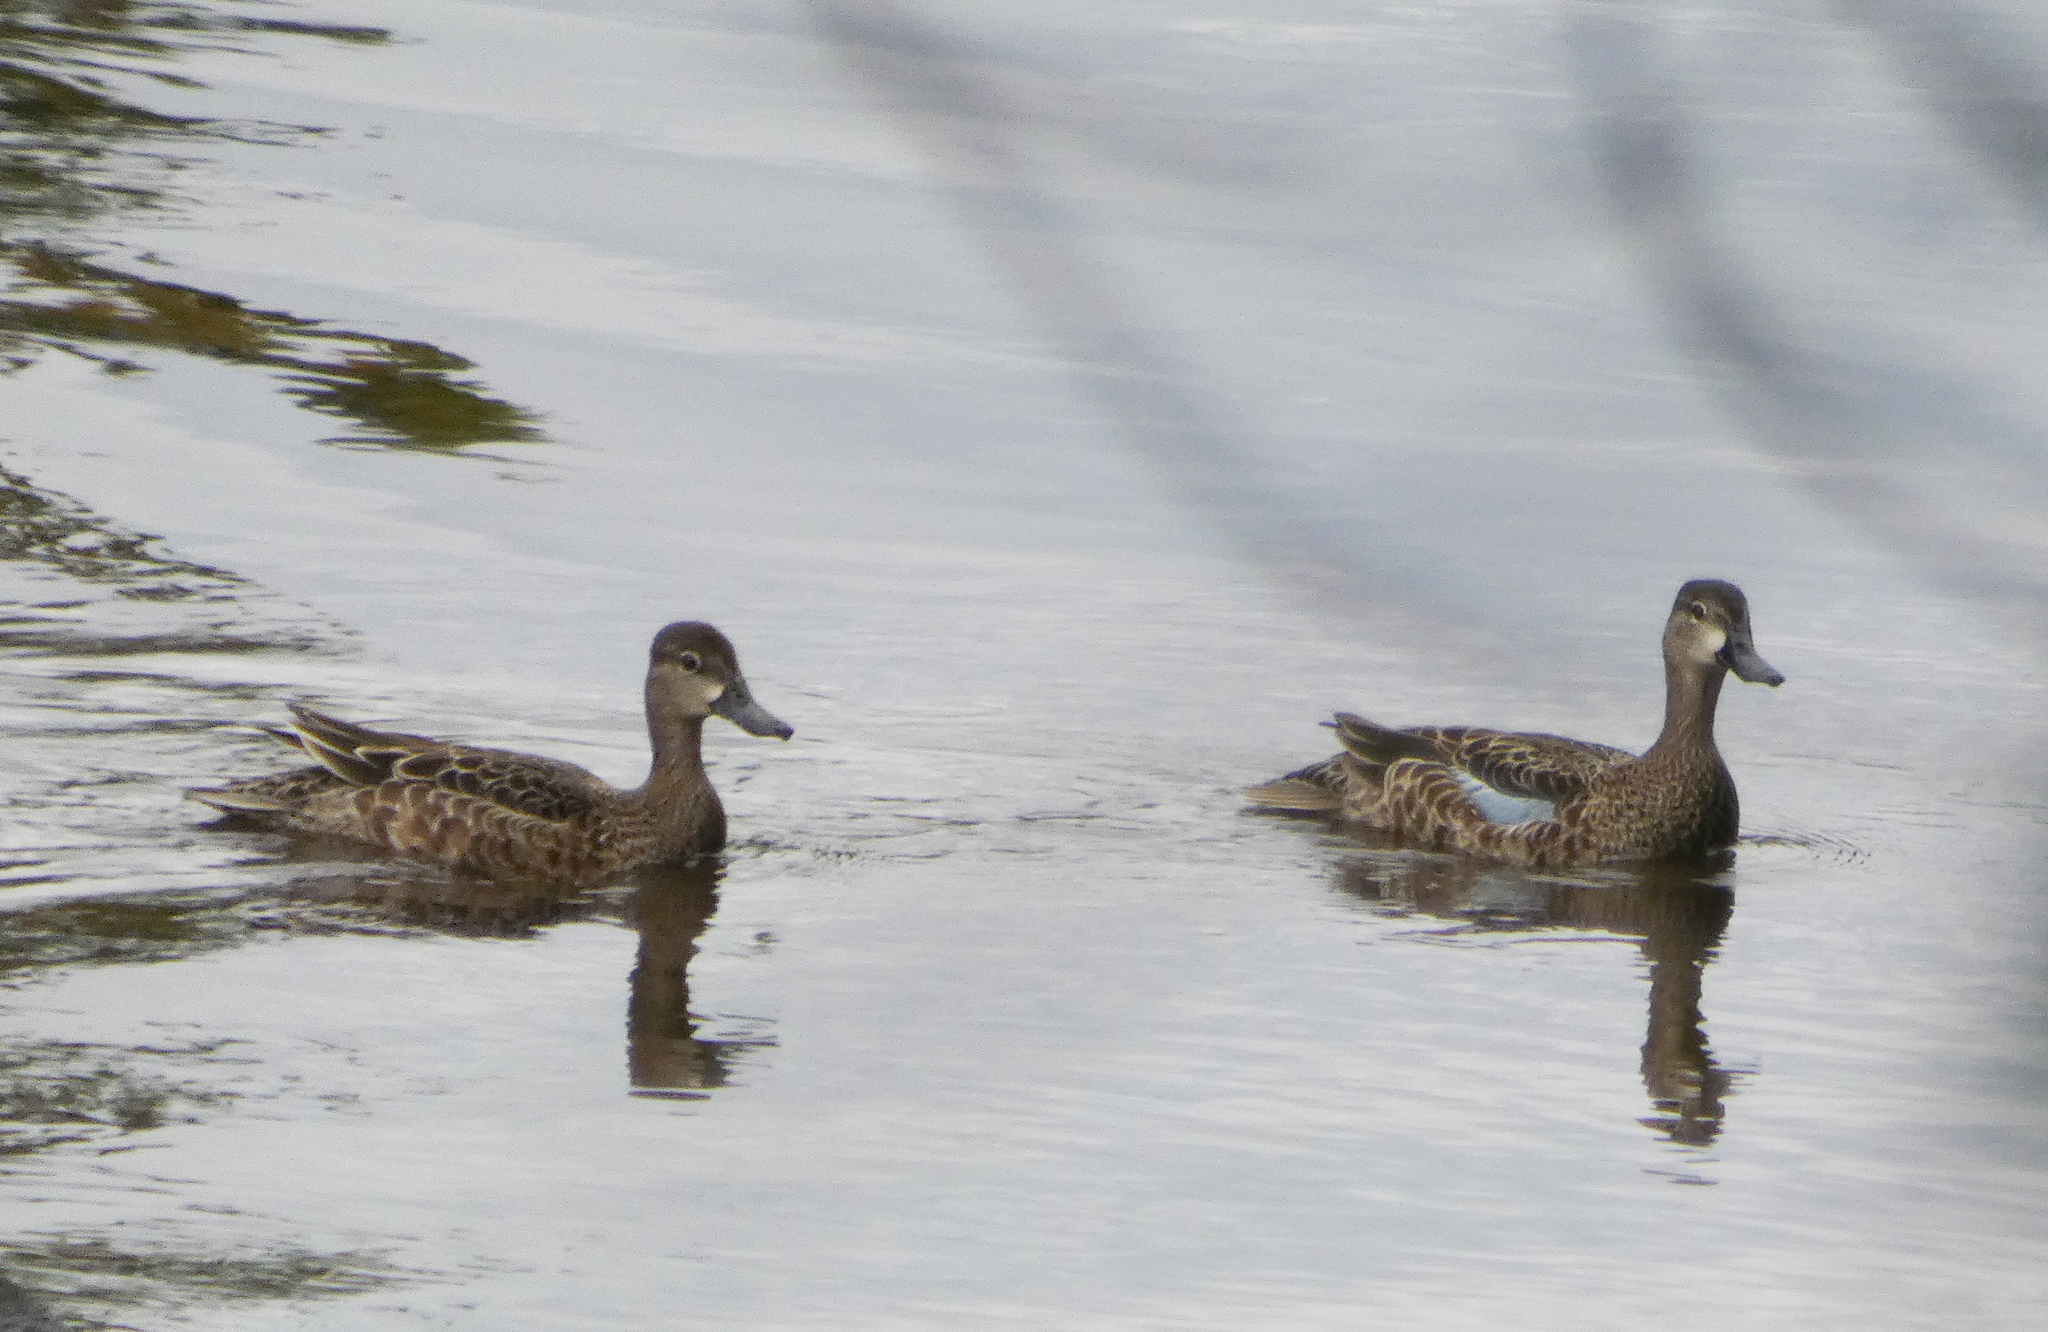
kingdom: Animalia
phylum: Chordata
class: Aves
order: Anseriformes
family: Anatidae
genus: Spatula
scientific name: Spatula discors
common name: Blue-winged teal
